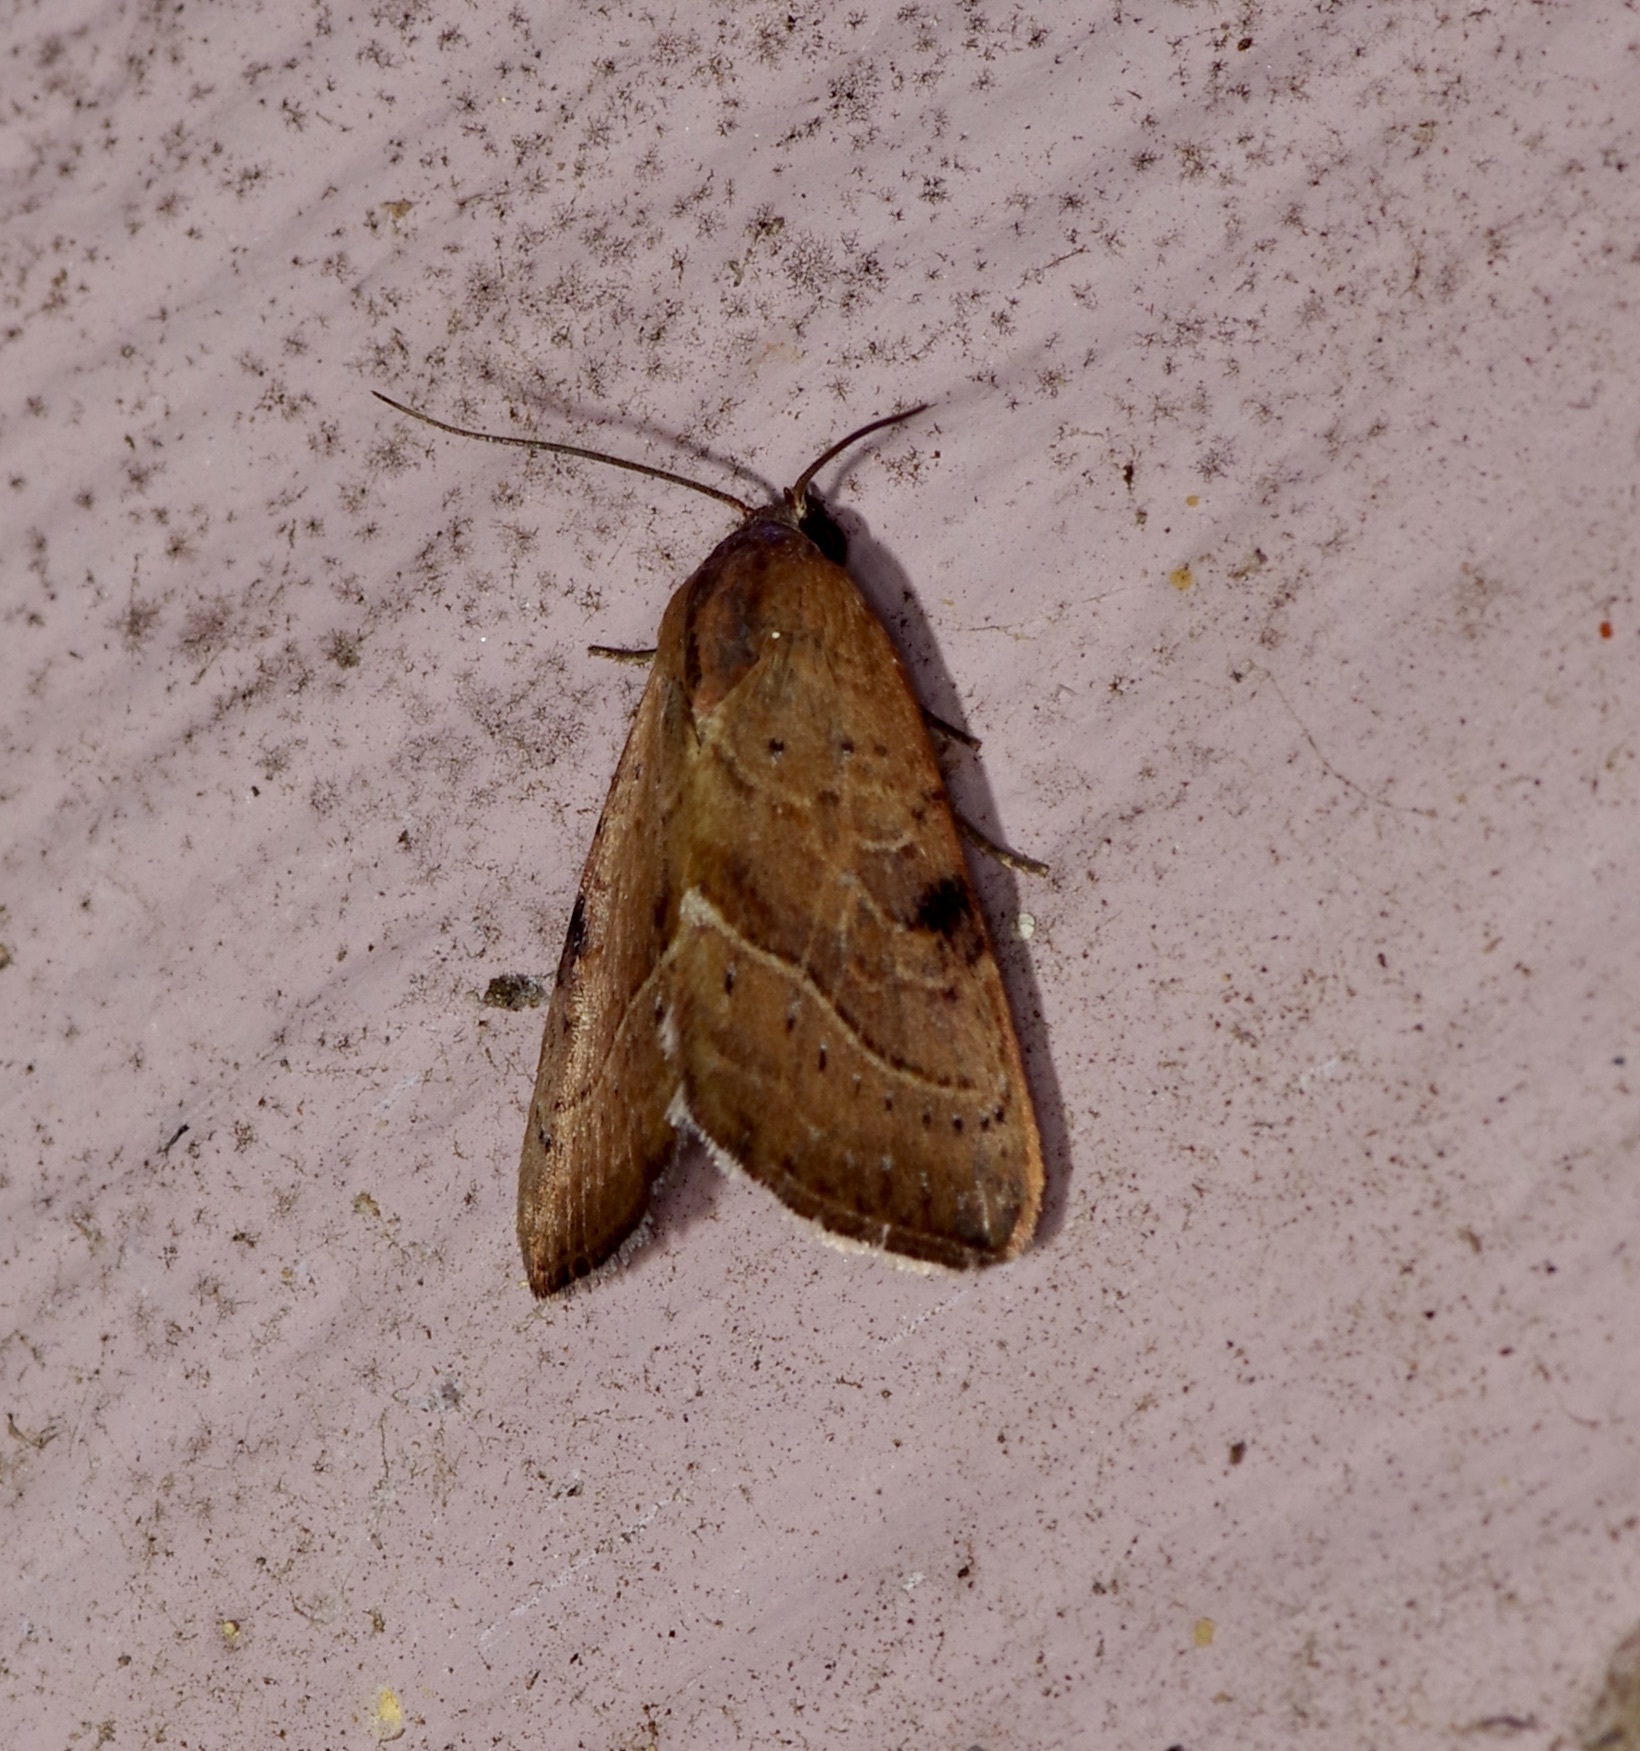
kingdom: Animalia
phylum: Arthropoda
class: Insecta
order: Lepidoptera
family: Noctuidae
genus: Galgula
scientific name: Galgula partita
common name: Wedgeling
